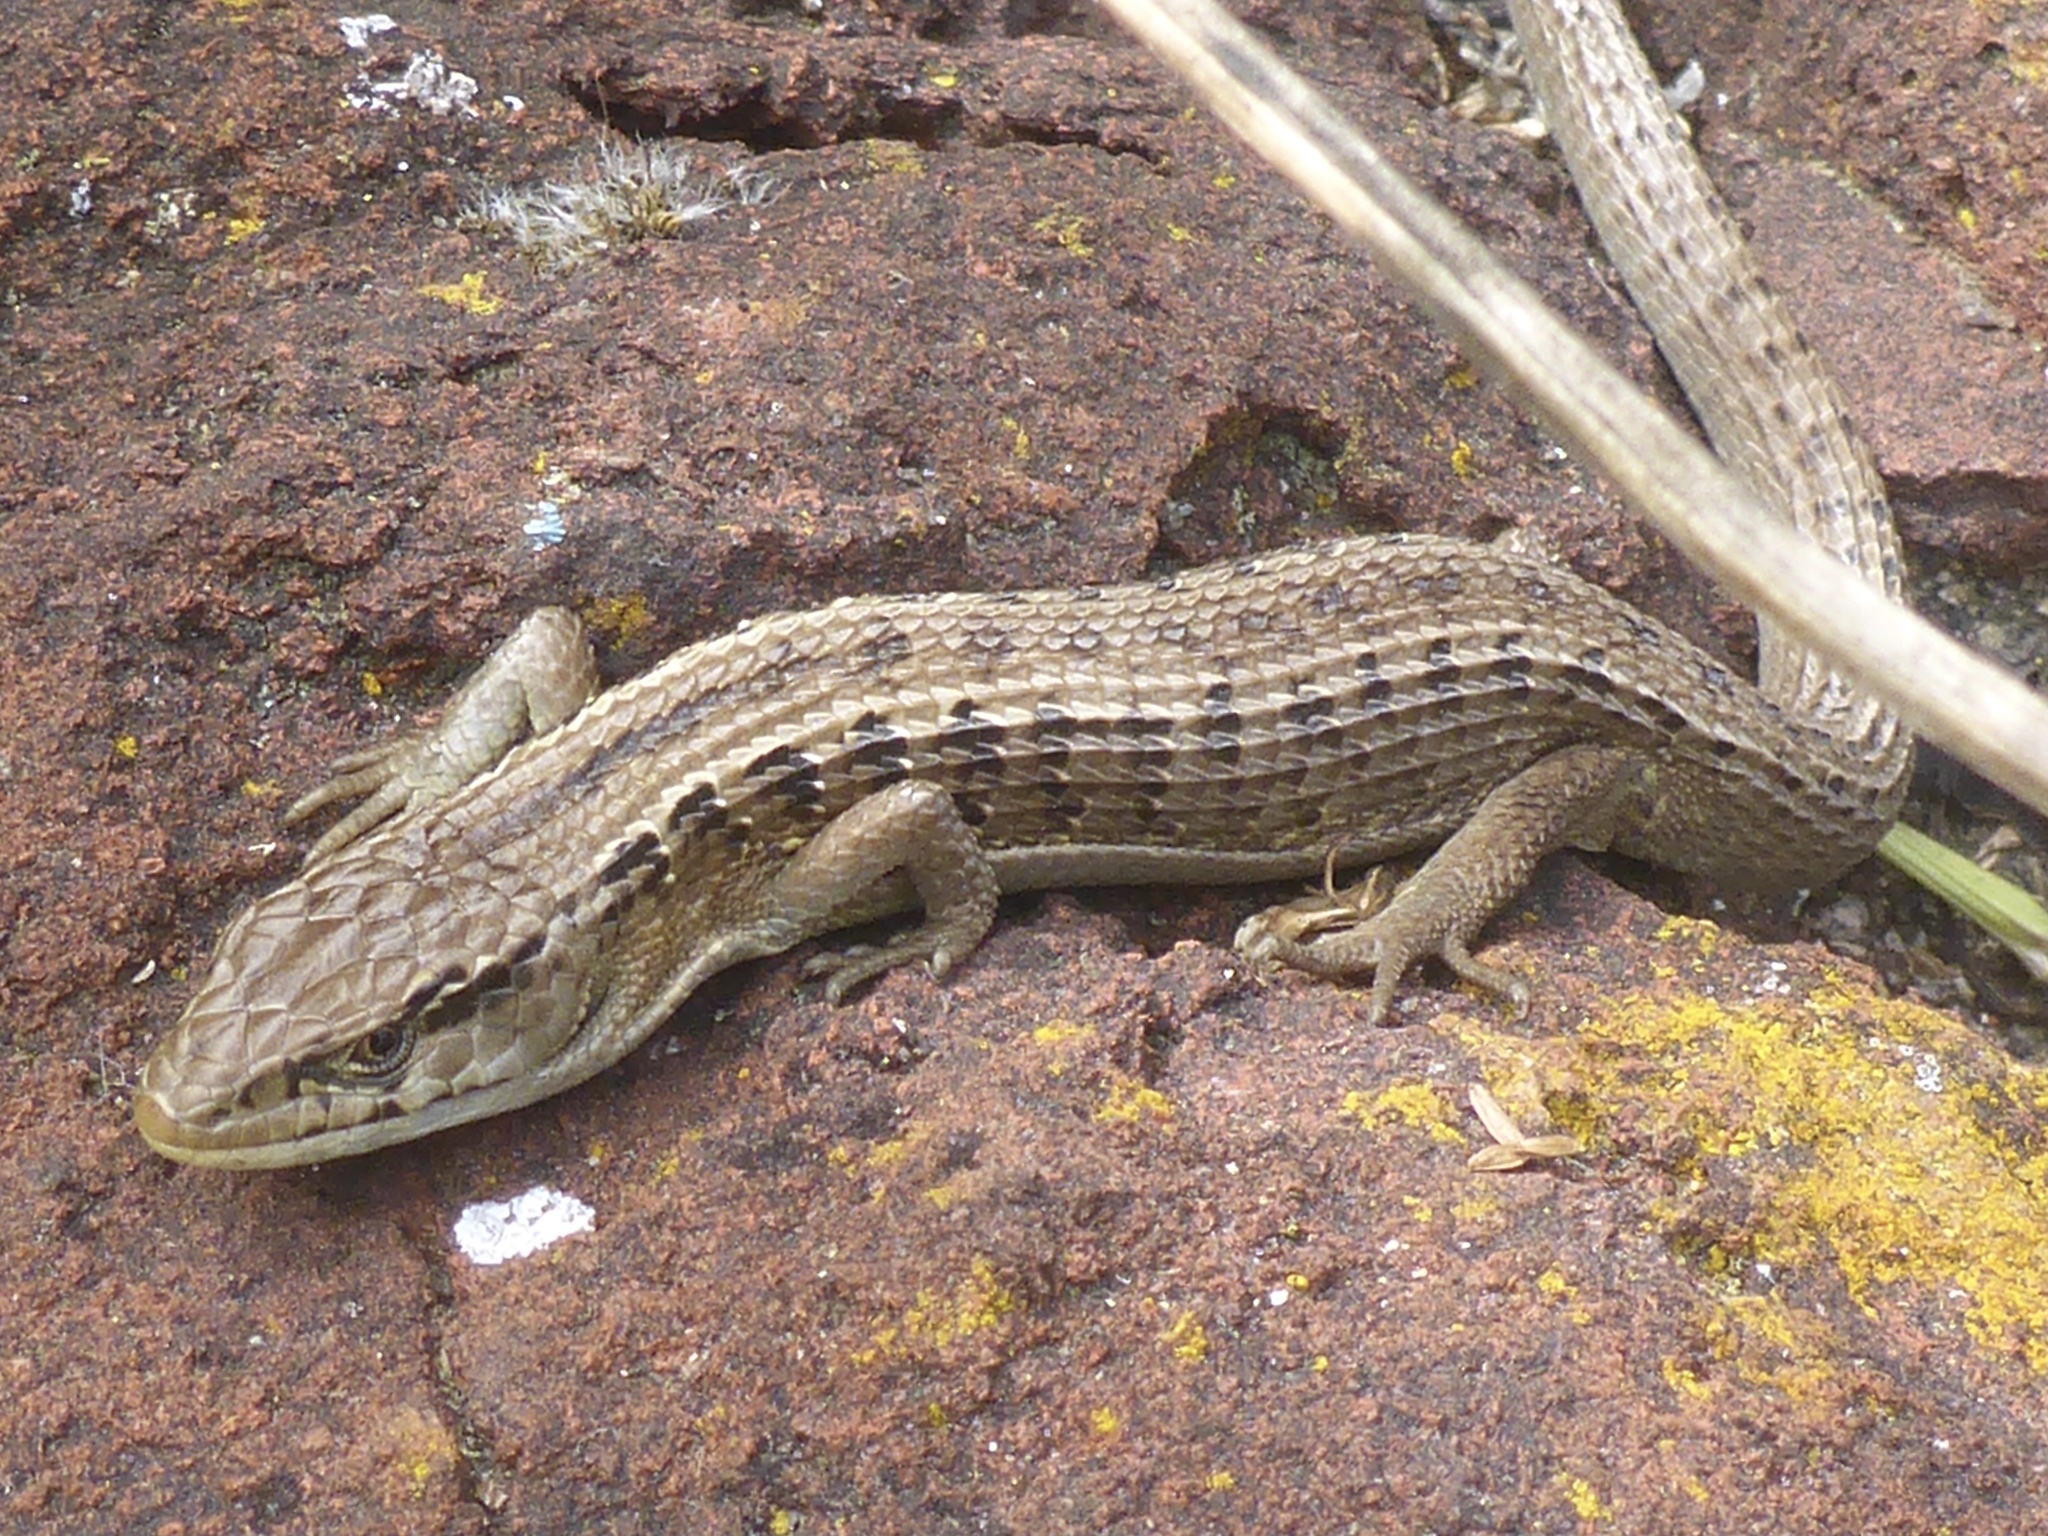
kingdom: Animalia
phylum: Chordata
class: Squamata
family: Anguidae
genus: Elgaria
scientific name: Elgaria coerulea
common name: Northern alligator lizard
